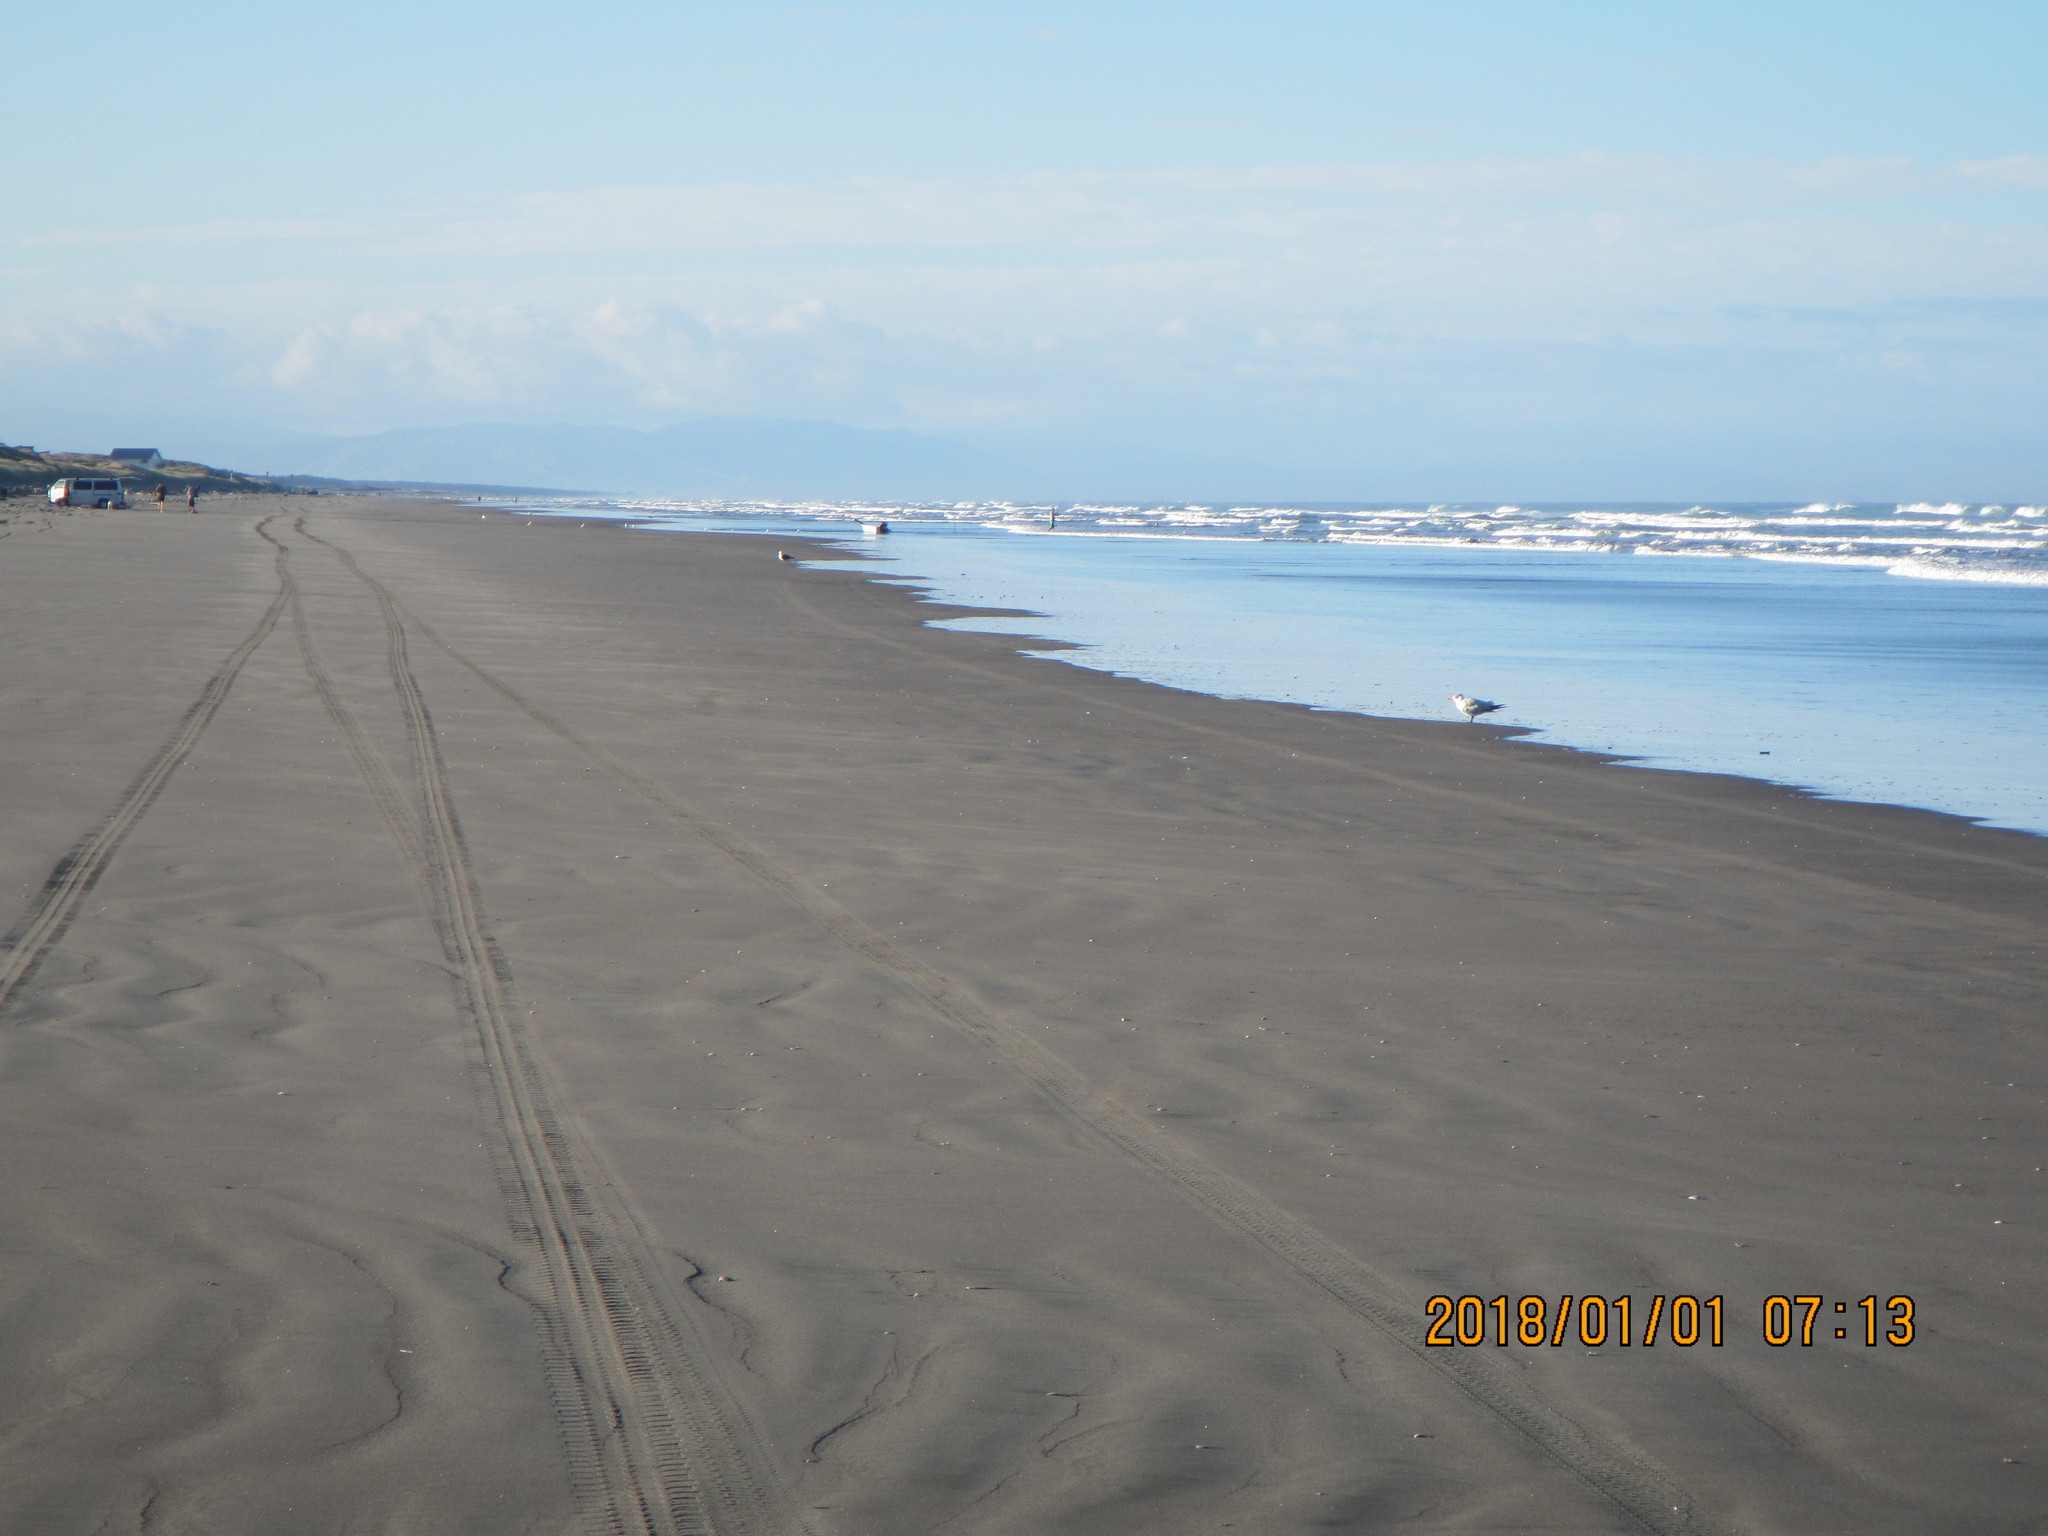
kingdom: Animalia
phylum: Chordata
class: Aves
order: Charadriiformes
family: Laridae
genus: Hydroprogne
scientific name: Hydroprogne caspia
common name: Caspian tern
